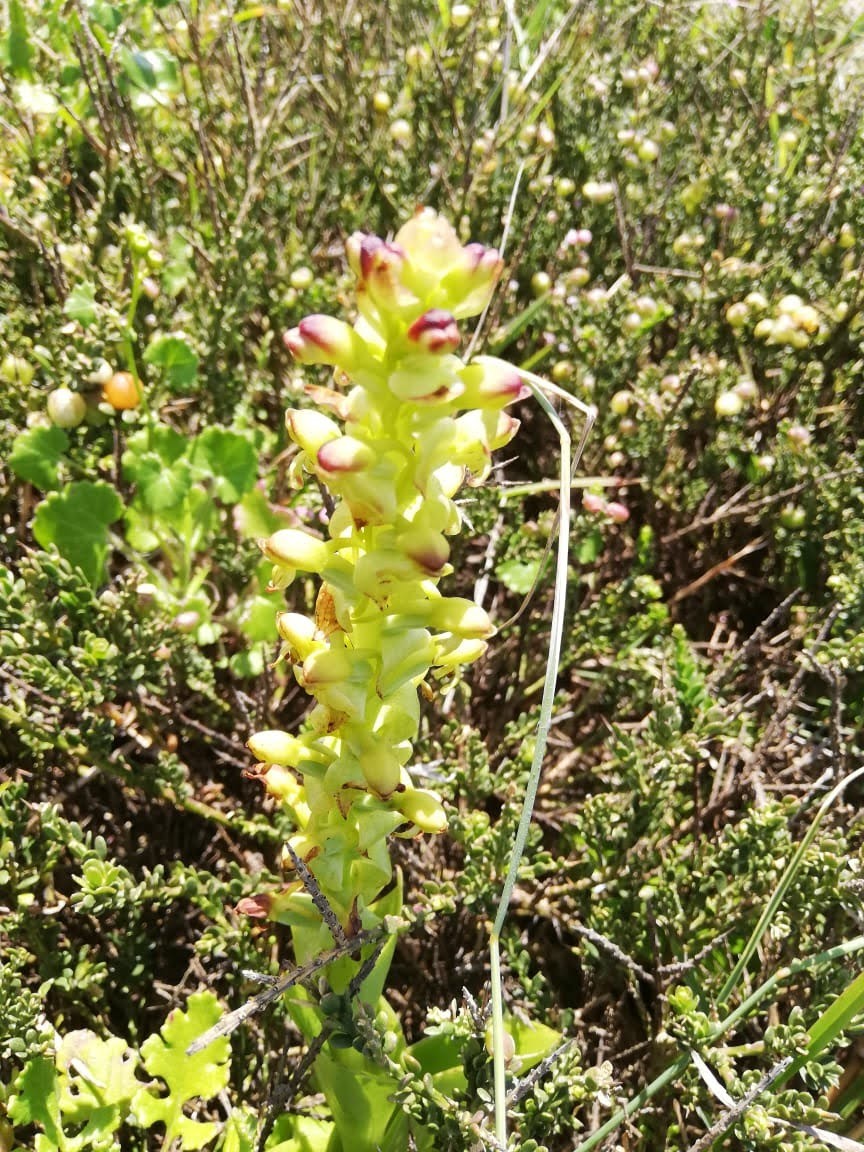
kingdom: Plantae
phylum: Tracheophyta
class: Liliopsida
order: Asparagales
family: Orchidaceae
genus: Satyrium
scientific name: Satyrium odorum
